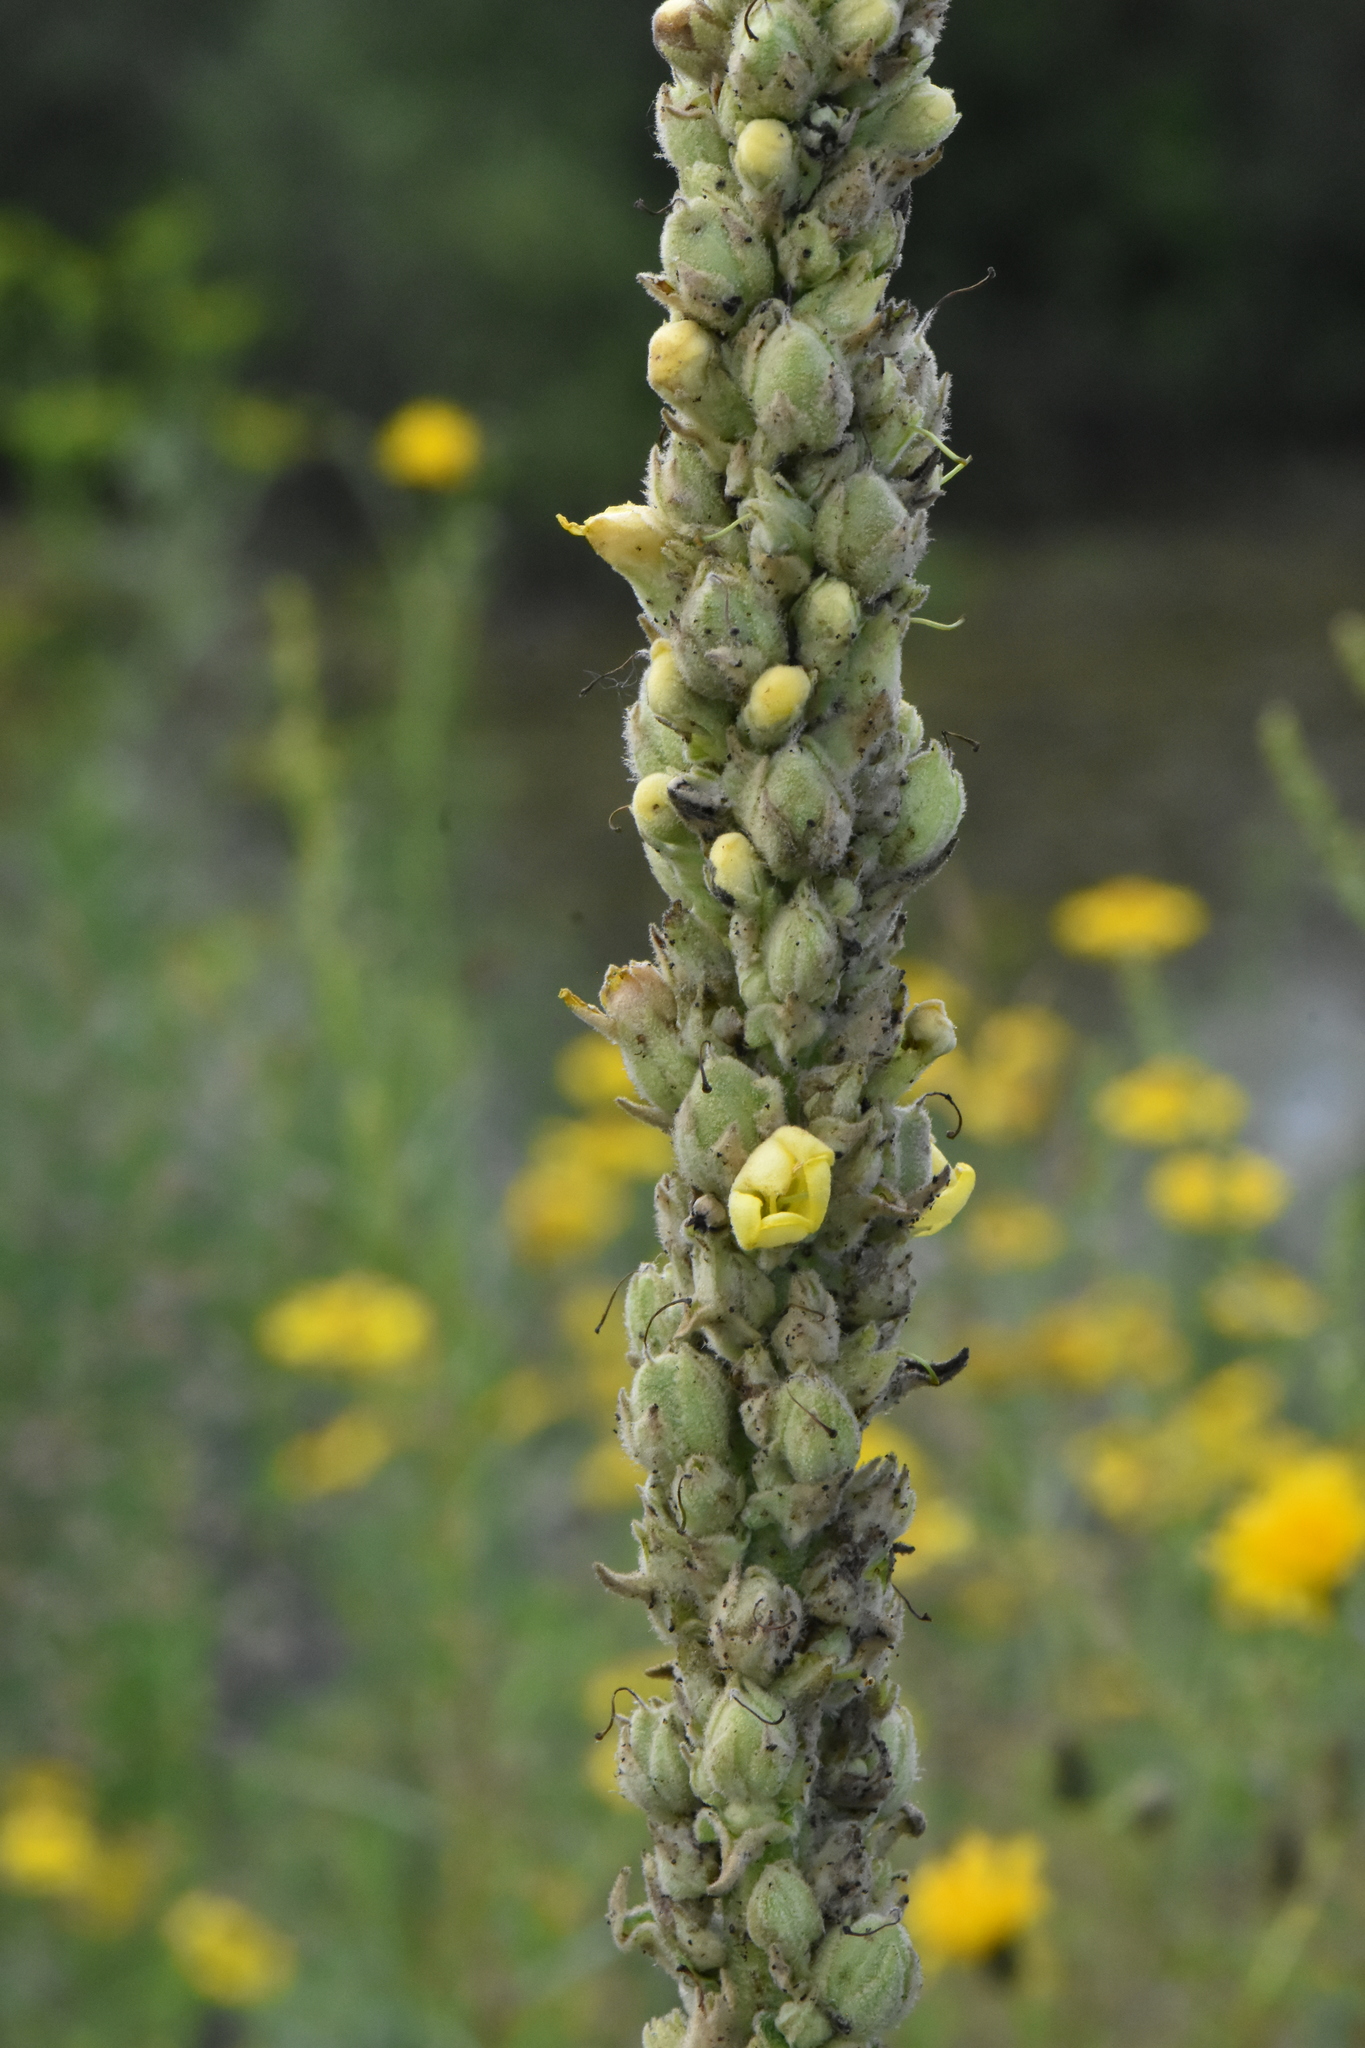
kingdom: Plantae
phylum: Tracheophyta
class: Magnoliopsida
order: Lamiales
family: Scrophulariaceae
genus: Verbascum
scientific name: Verbascum thapsus
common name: Common mullein
